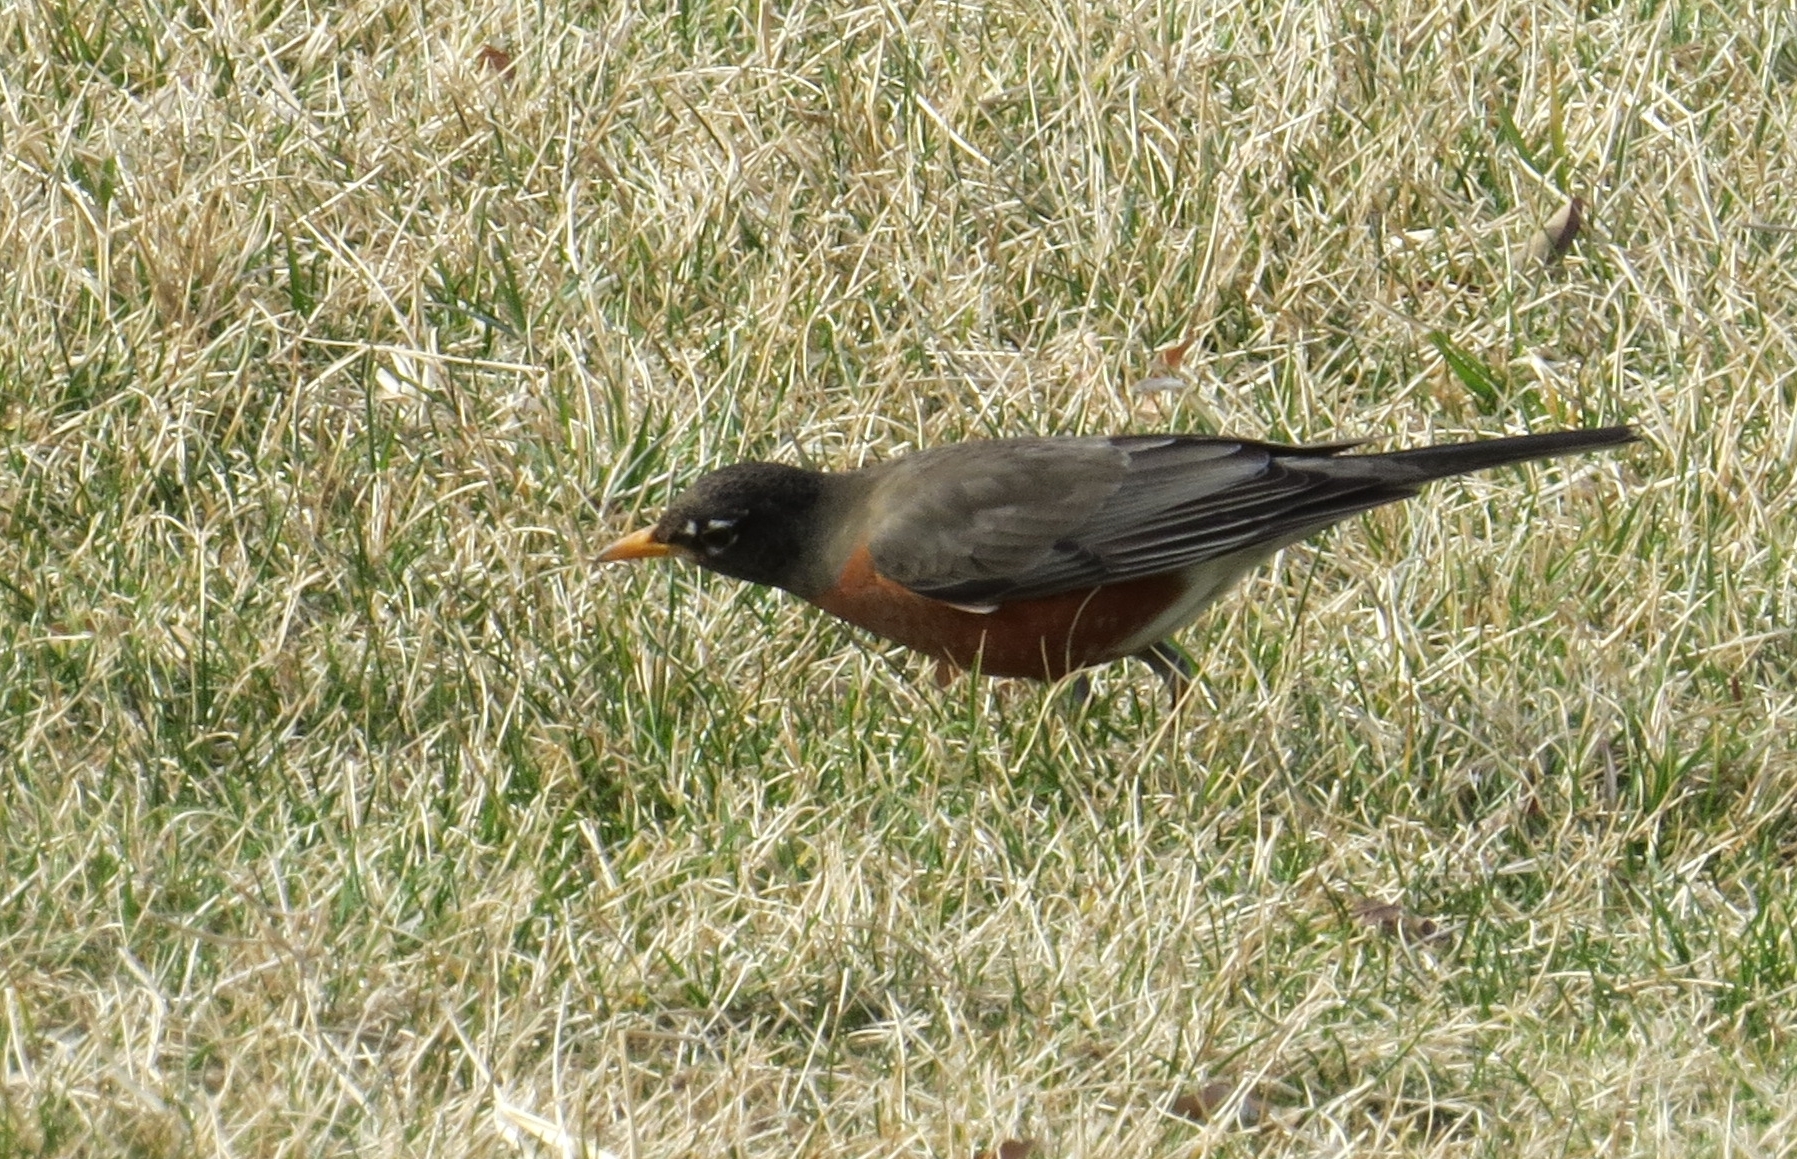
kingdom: Animalia
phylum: Chordata
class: Aves
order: Passeriformes
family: Turdidae
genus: Turdus
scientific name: Turdus migratorius
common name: American robin
